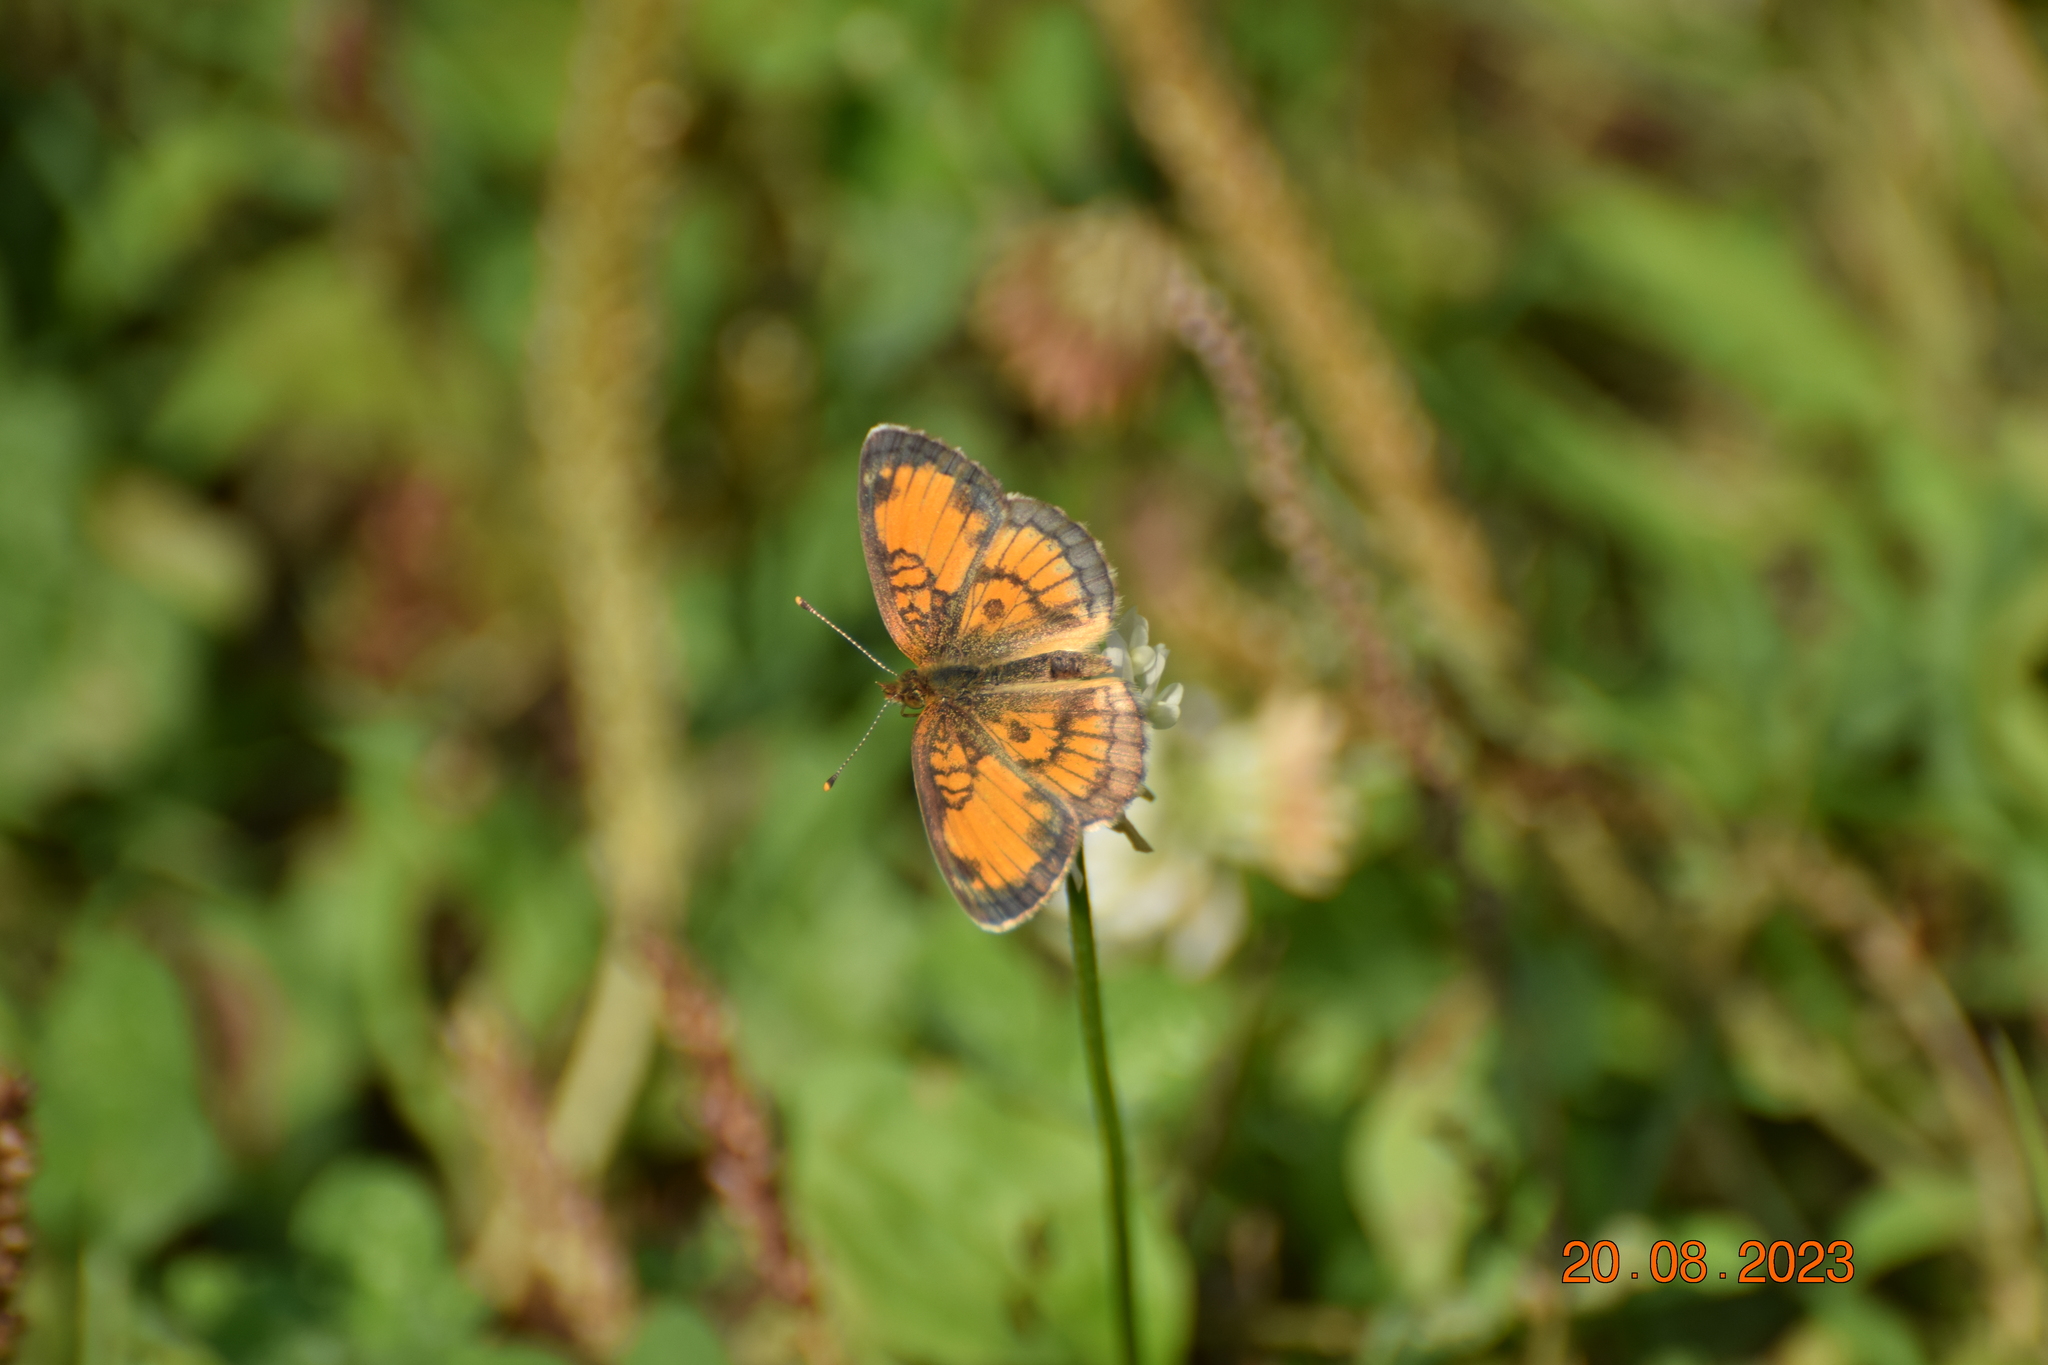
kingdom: Animalia
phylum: Arthropoda
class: Insecta
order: Lepidoptera
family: Nymphalidae
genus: Phyciodes
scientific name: Phyciodes tharos
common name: Pearl crescent
